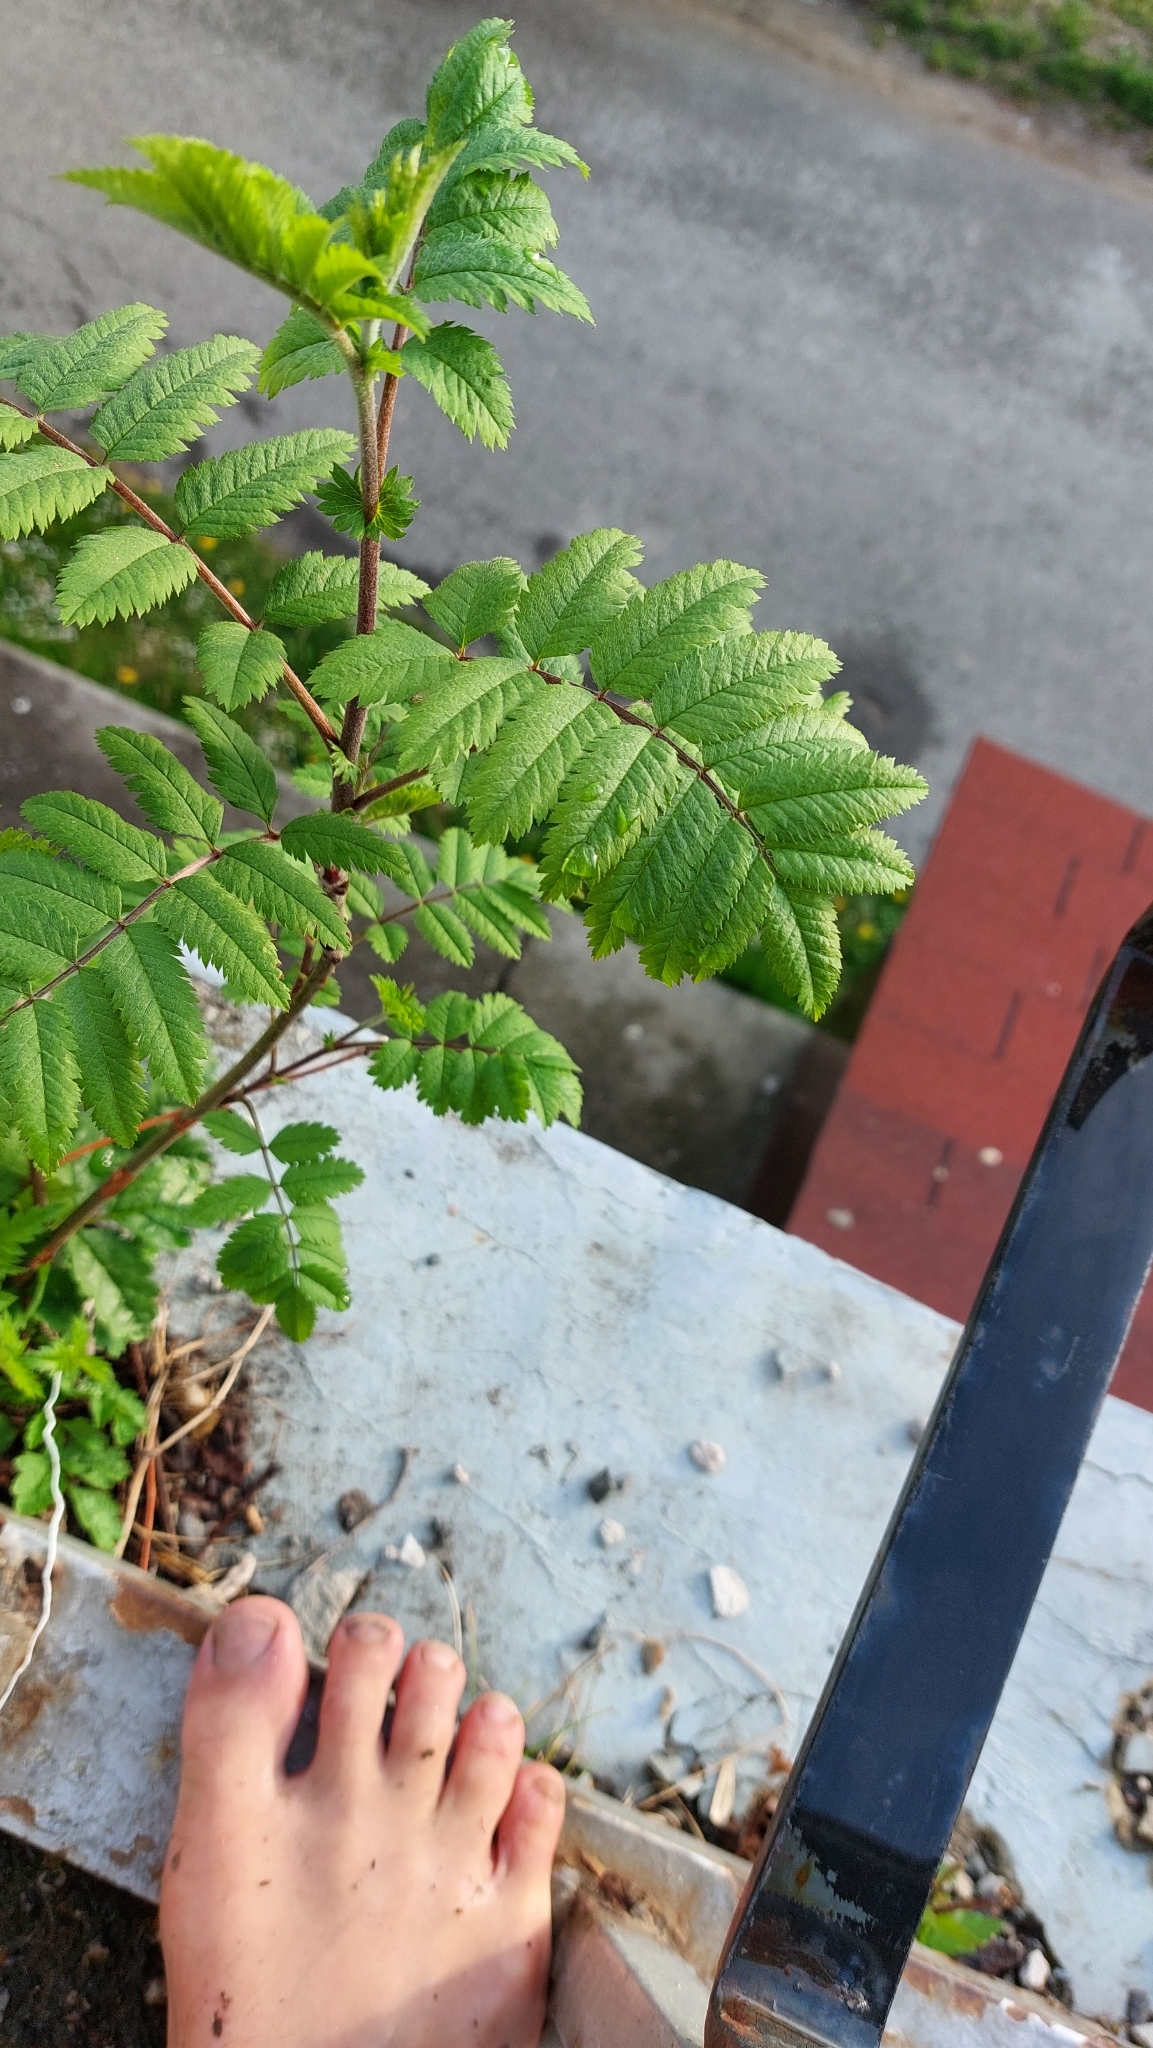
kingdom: Plantae
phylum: Tracheophyta
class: Magnoliopsida
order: Rosales
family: Rosaceae
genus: Sorbus
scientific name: Sorbus aucuparia
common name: Rowan
